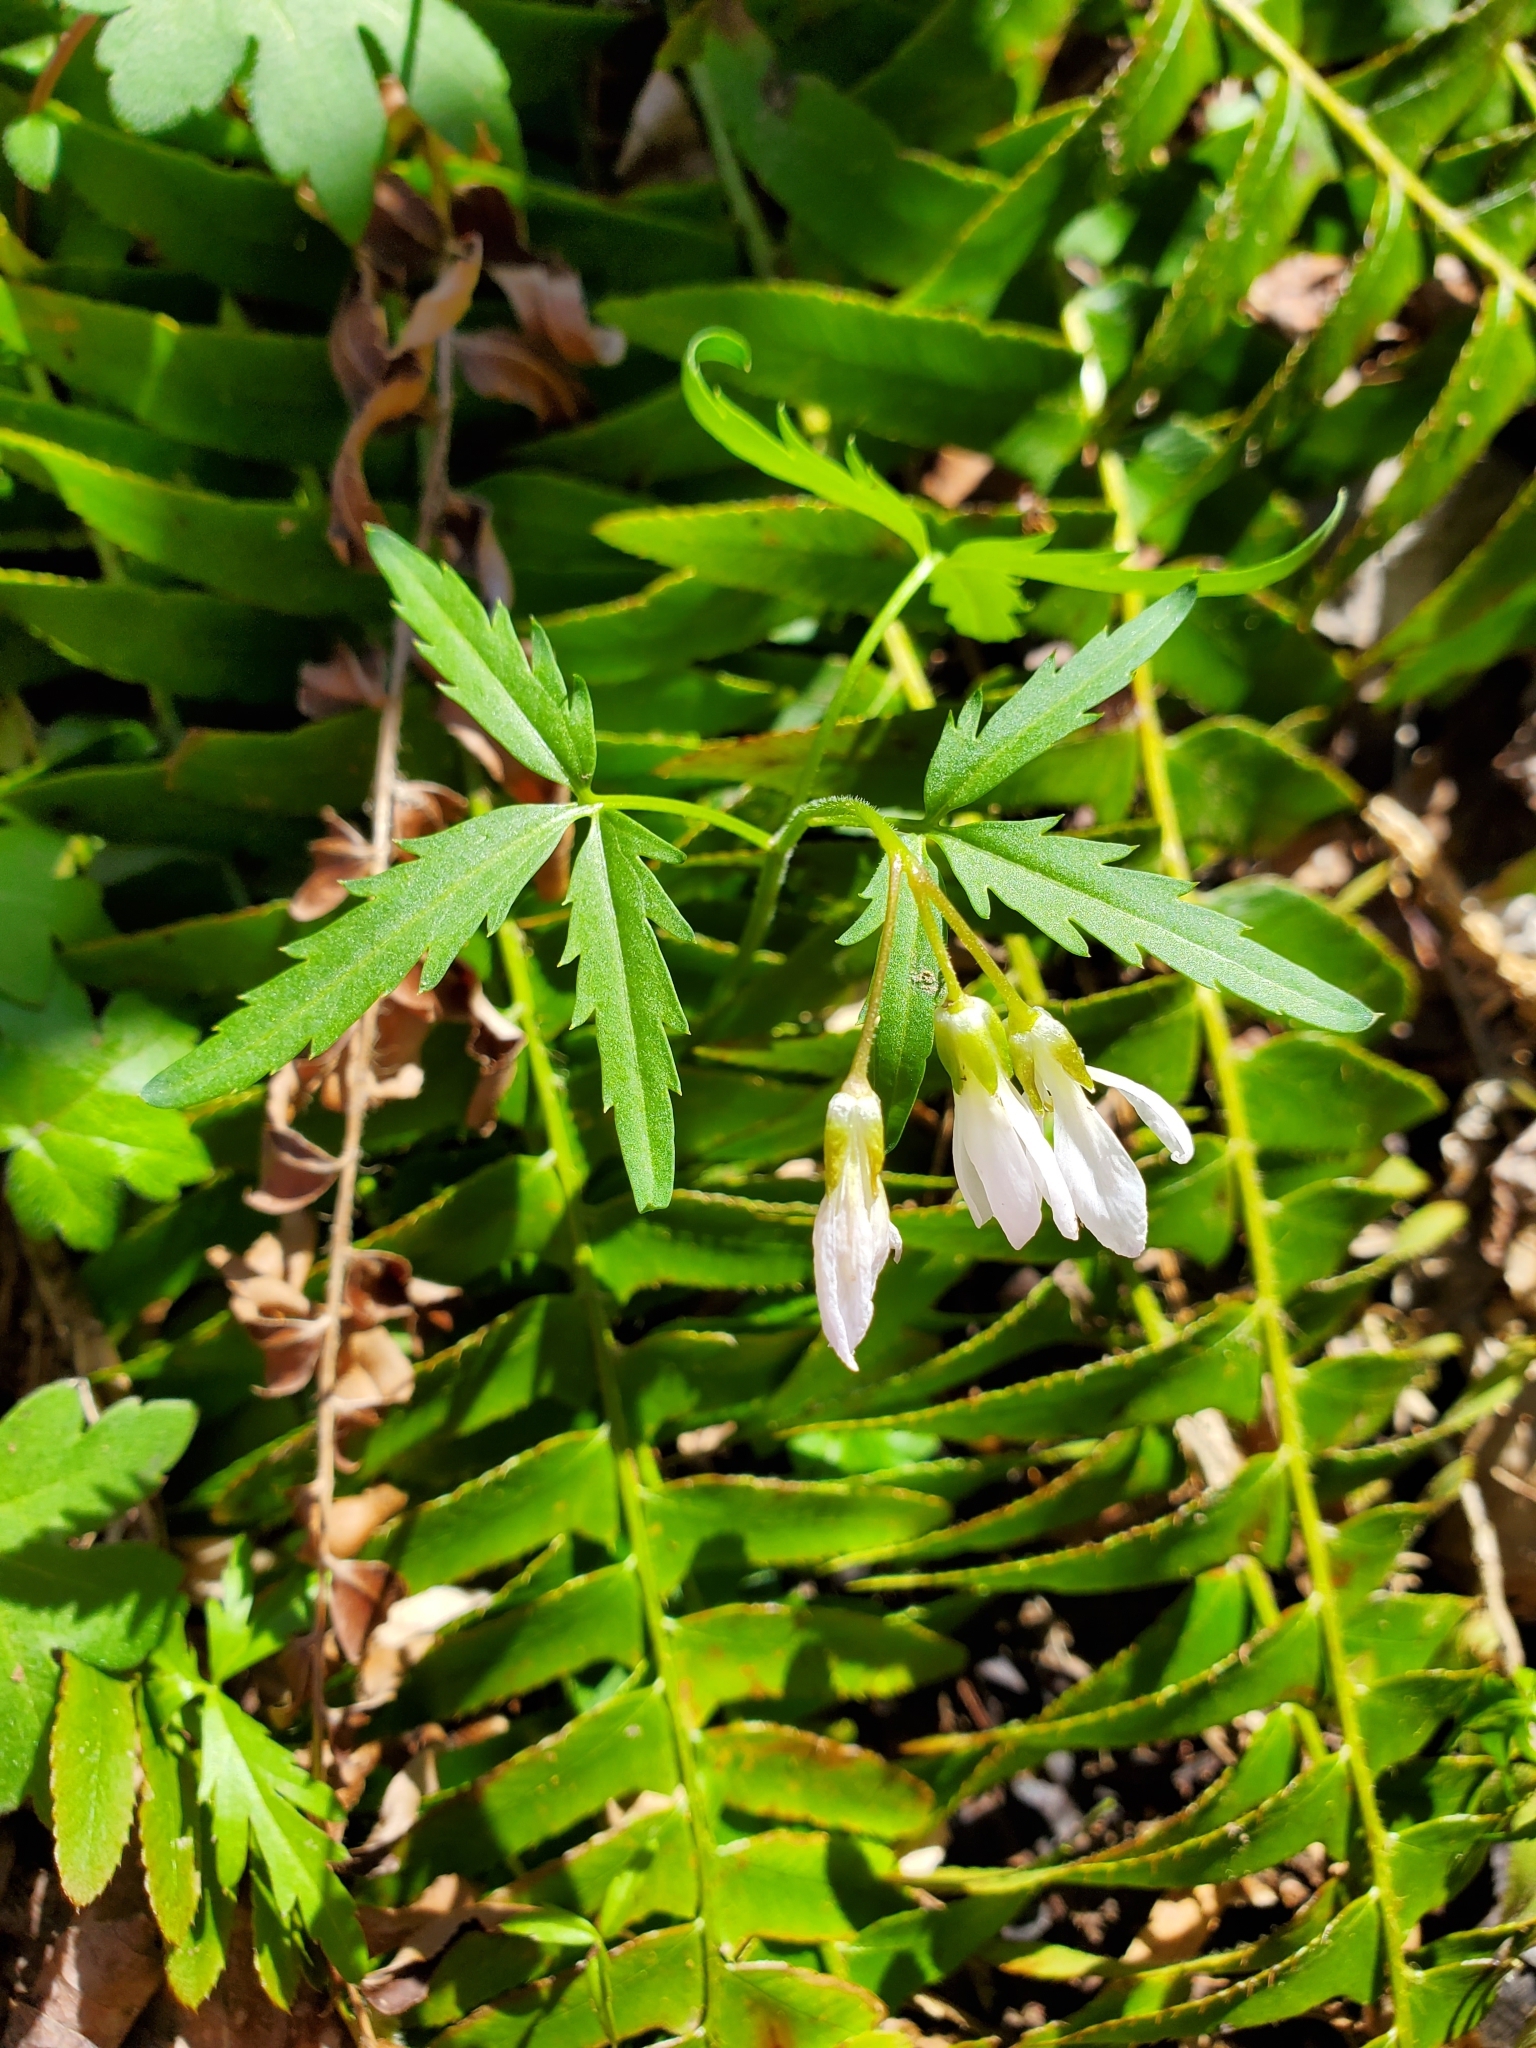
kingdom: Plantae
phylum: Tracheophyta
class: Magnoliopsida
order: Brassicales
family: Brassicaceae
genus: Cardamine
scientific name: Cardamine concatenata
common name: Cut-leaf toothcup
